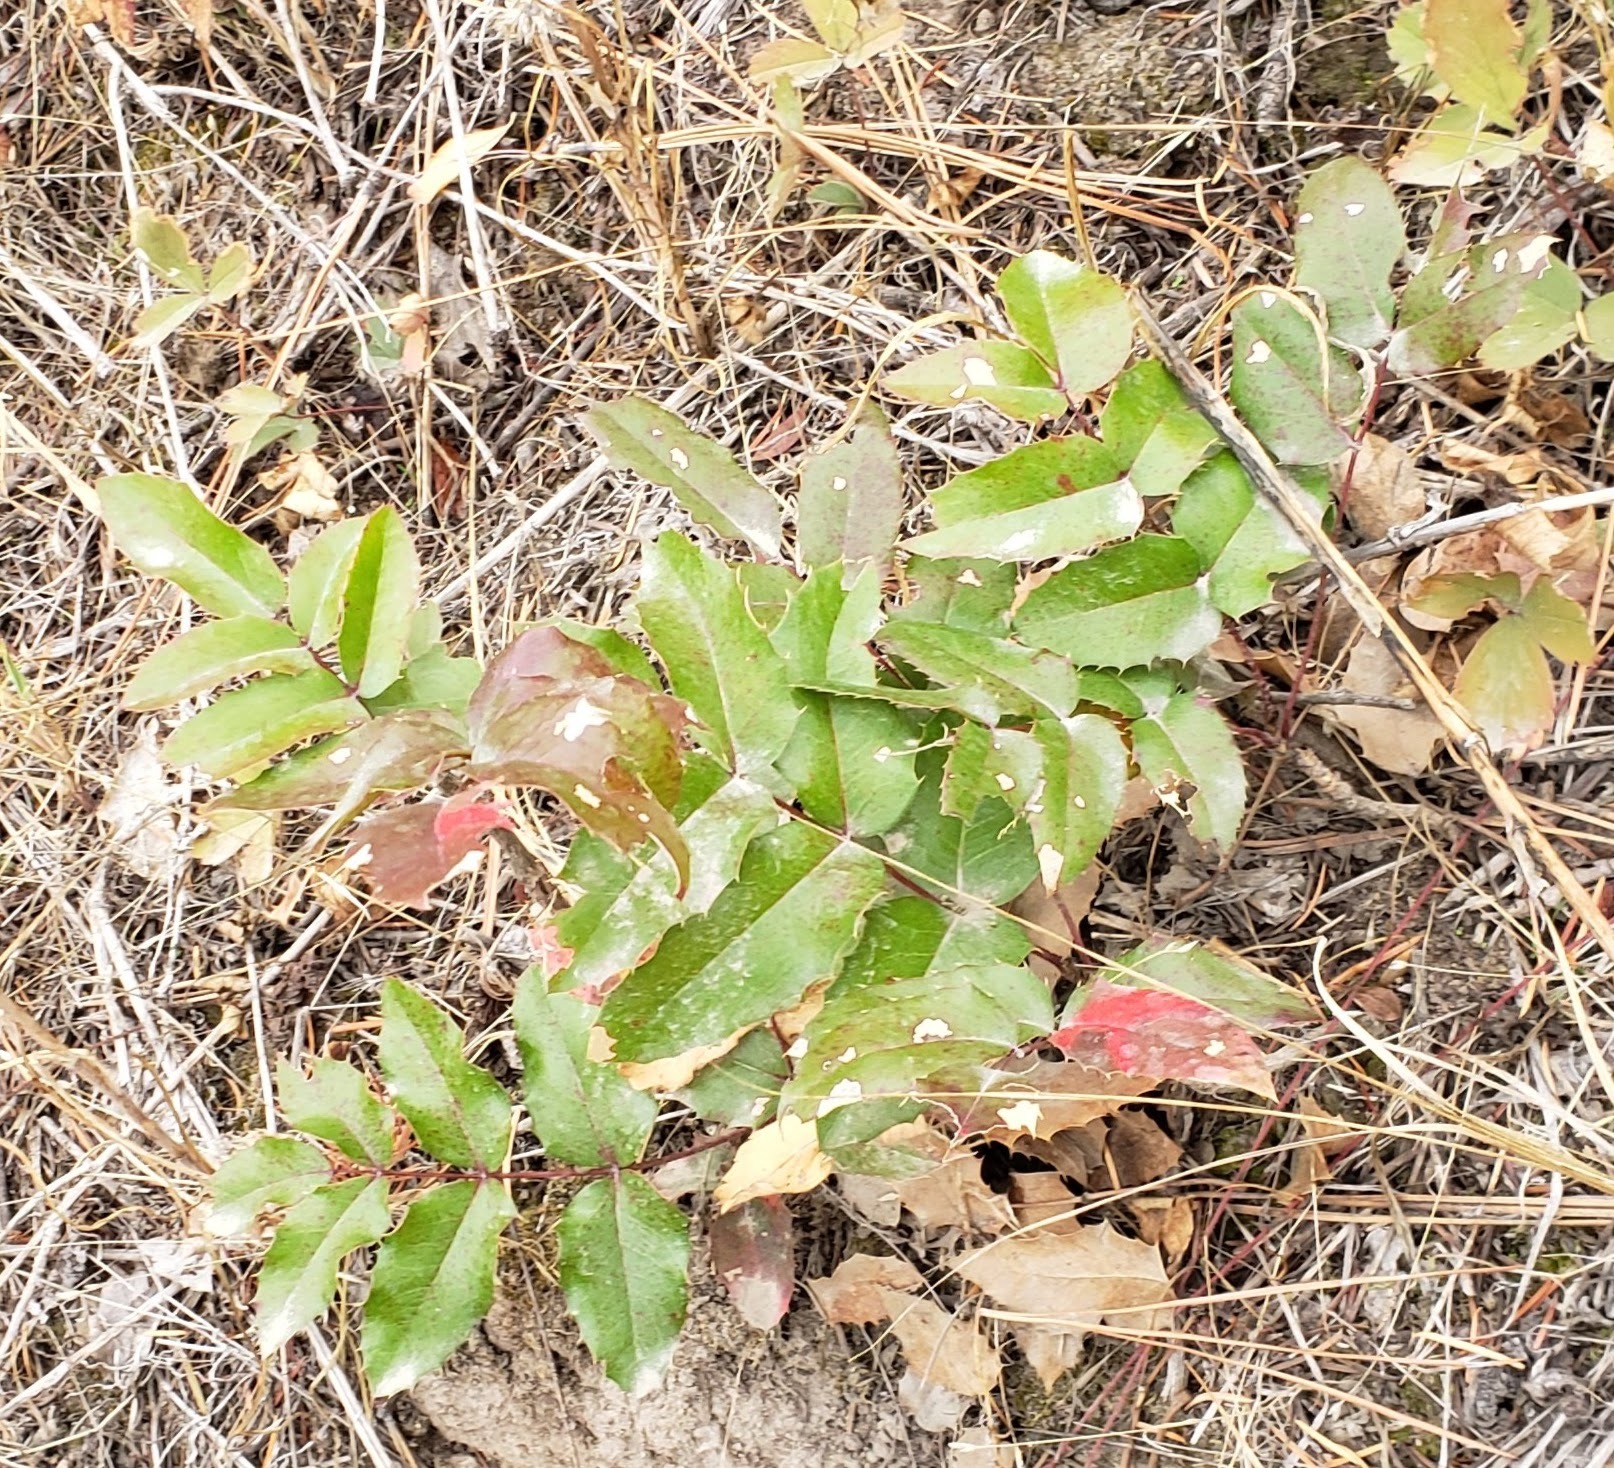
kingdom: Plantae
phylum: Tracheophyta
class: Magnoliopsida
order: Ranunculales
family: Berberidaceae
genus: Mahonia
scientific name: Mahonia aquifolium
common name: Oregon-grape
